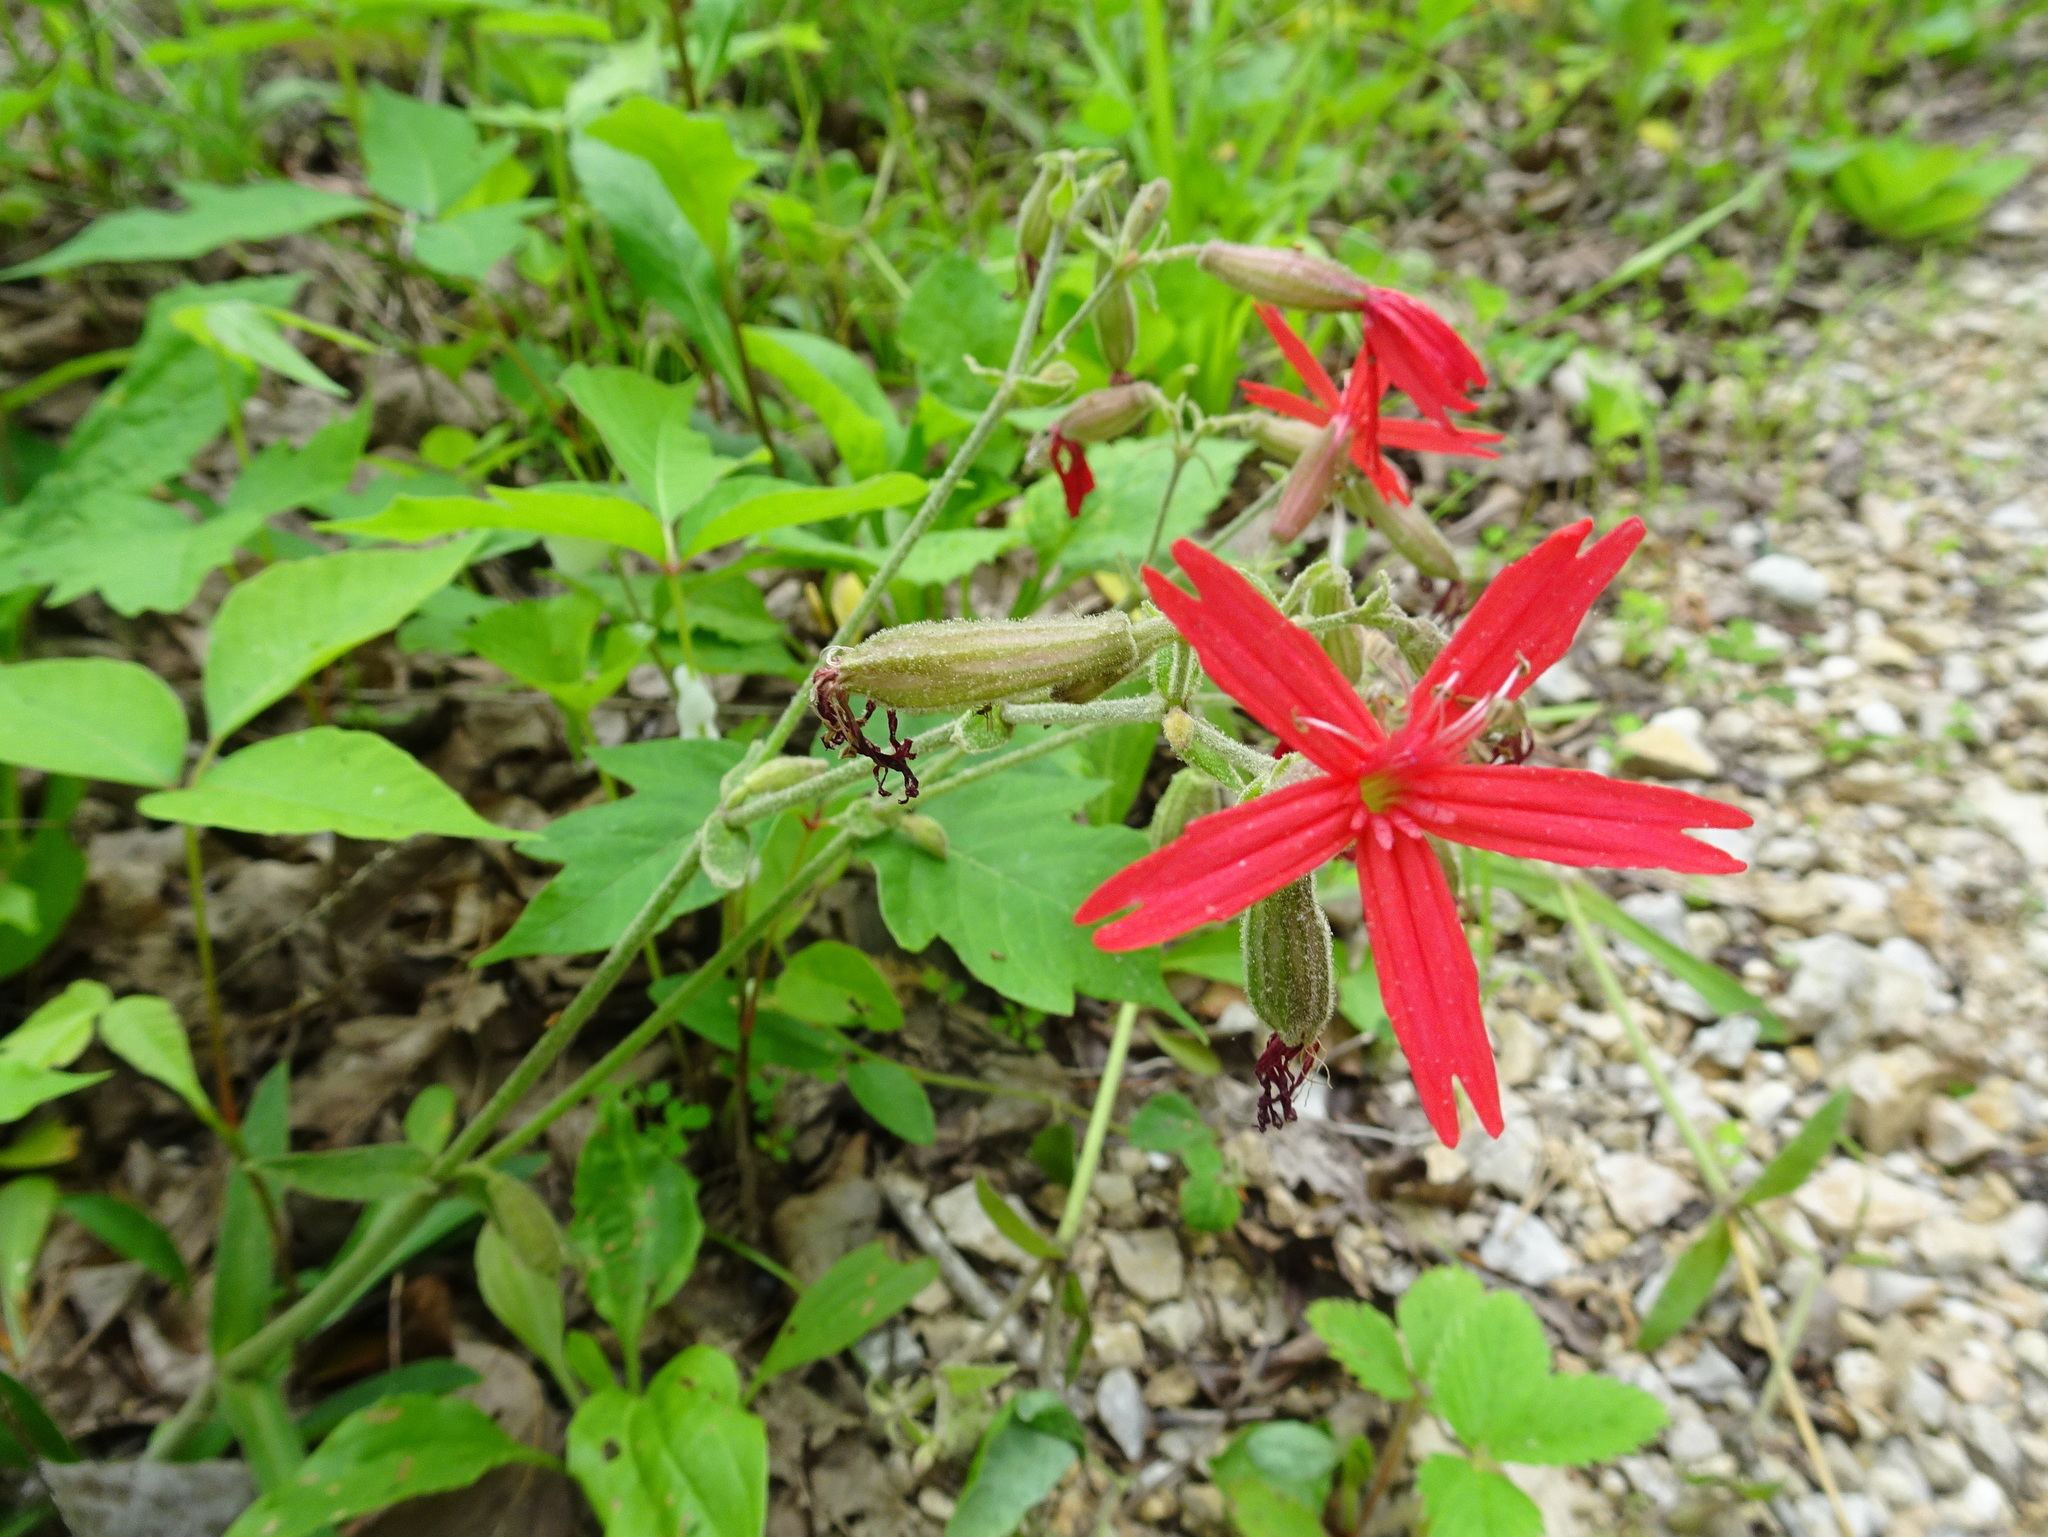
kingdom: Plantae
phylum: Tracheophyta
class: Magnoliopsida
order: Caryophyllales
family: Caryophyllaceae
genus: Silene
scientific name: Silene virginica
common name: Fire-pink
